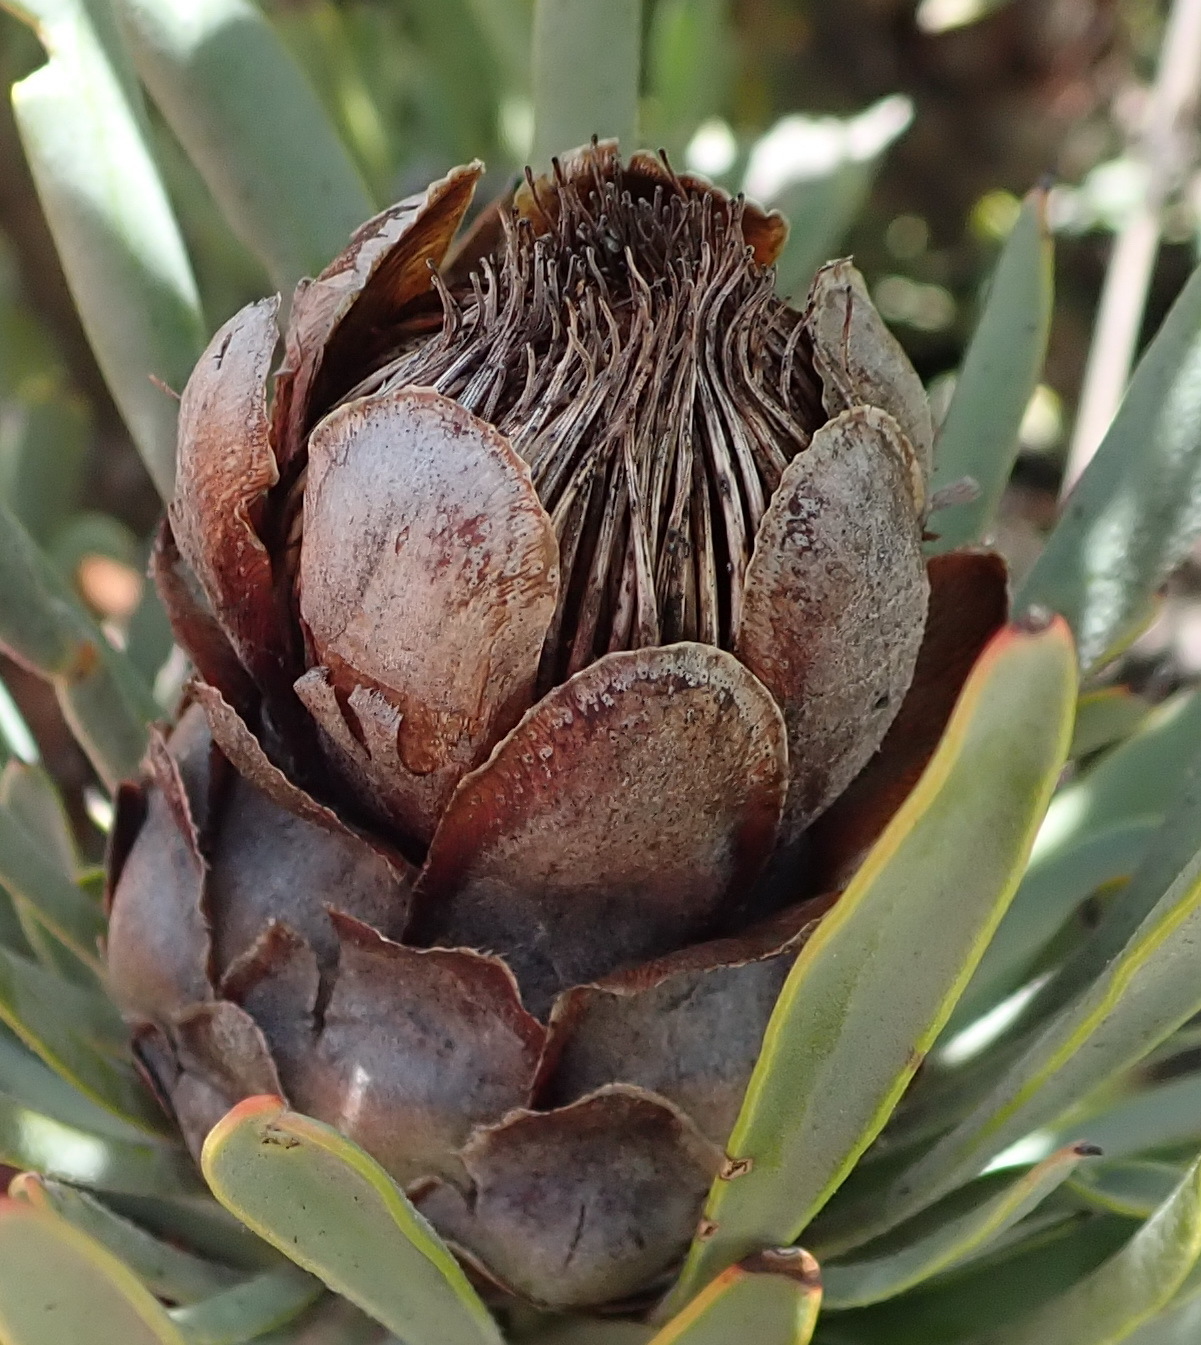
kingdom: Plantae
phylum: Tracheophyta
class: Magnoliopsida
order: Proteales
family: Proteaceae
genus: Protea
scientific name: Protea canaliculata
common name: Groove-leaf sugarbush
